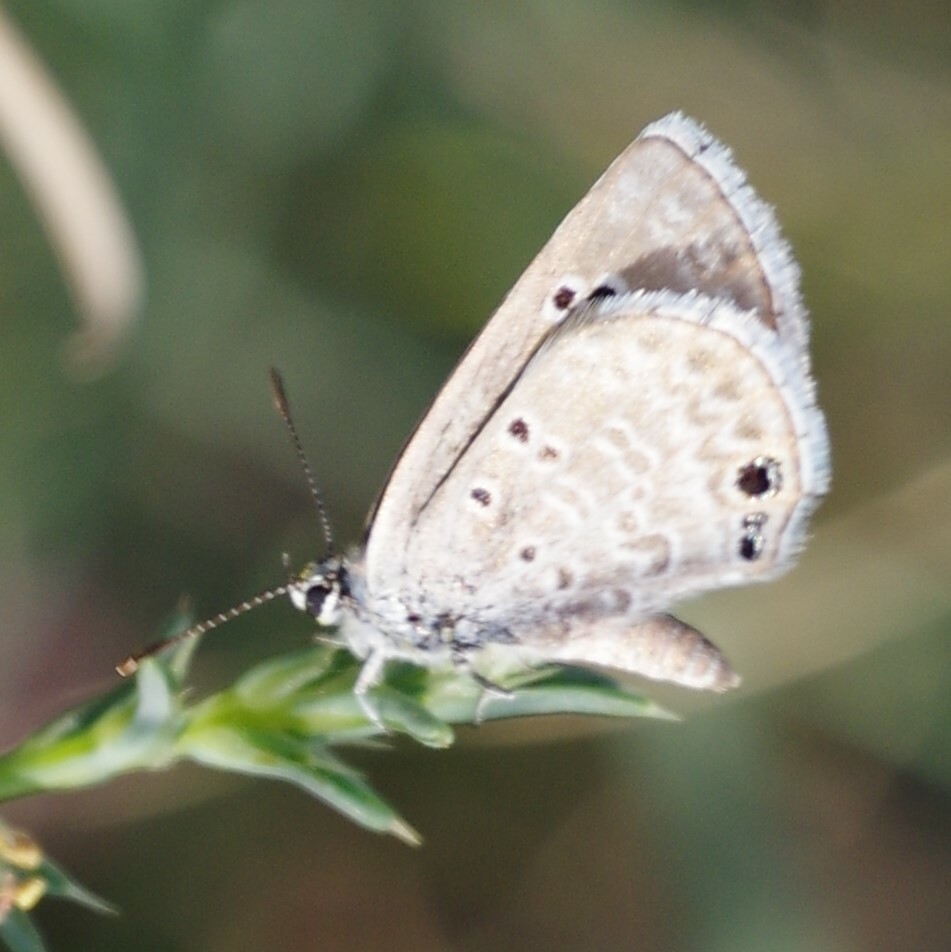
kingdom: Animalia
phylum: Arthropoda
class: Insecta
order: Lepidoptera
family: Lycaenidae
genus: Echinargus
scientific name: Echinargus isola
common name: Reakirt's blue
